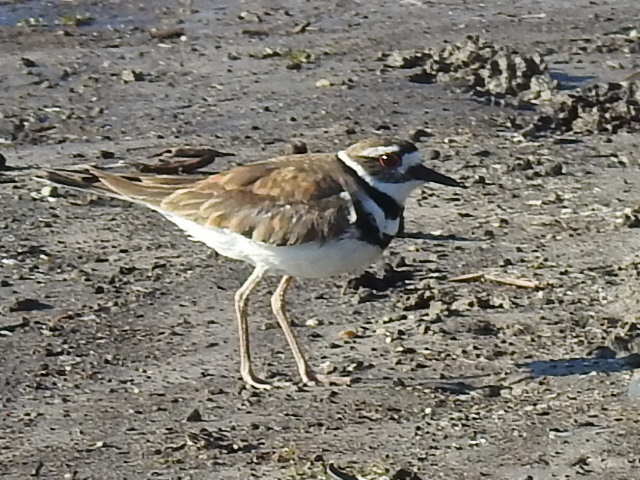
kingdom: Animalia
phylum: Chordata
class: Aves
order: Charadriiformes
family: Charadriidae
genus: Charadrius
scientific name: Charadrius vociferus
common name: Killdeer
